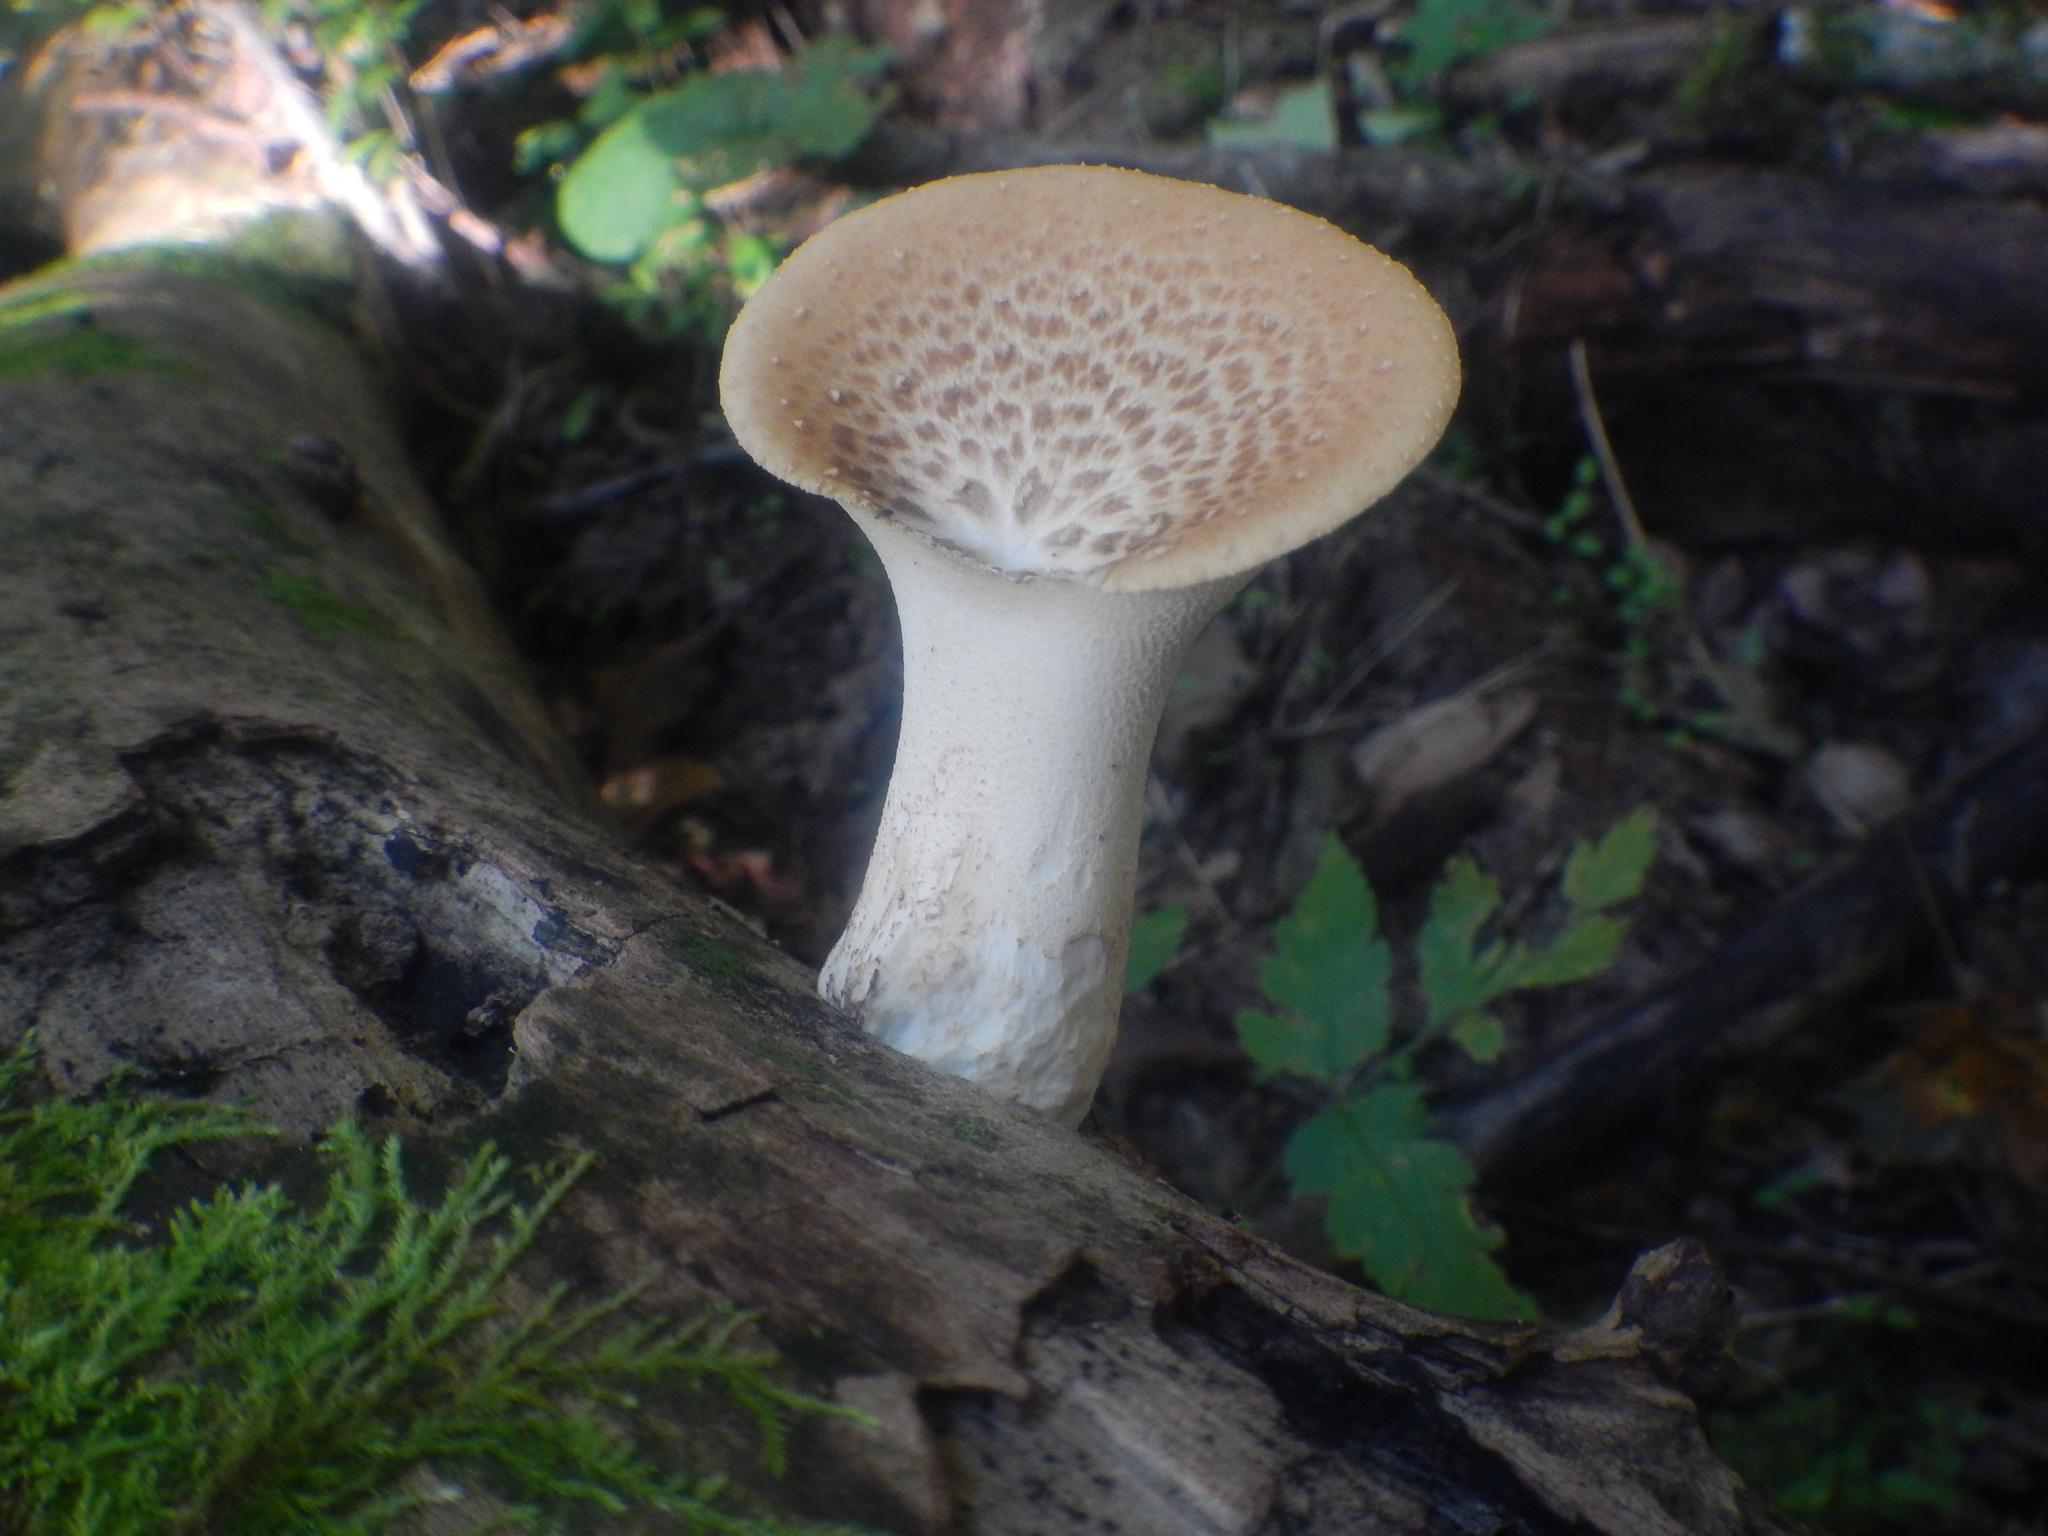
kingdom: Fungi
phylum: Basidiomycota
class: Agaricomycetes
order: Polyporales
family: Polyporaceae
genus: Cerioporus
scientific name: Cerioporus squamosus
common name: Dryad's saddle
